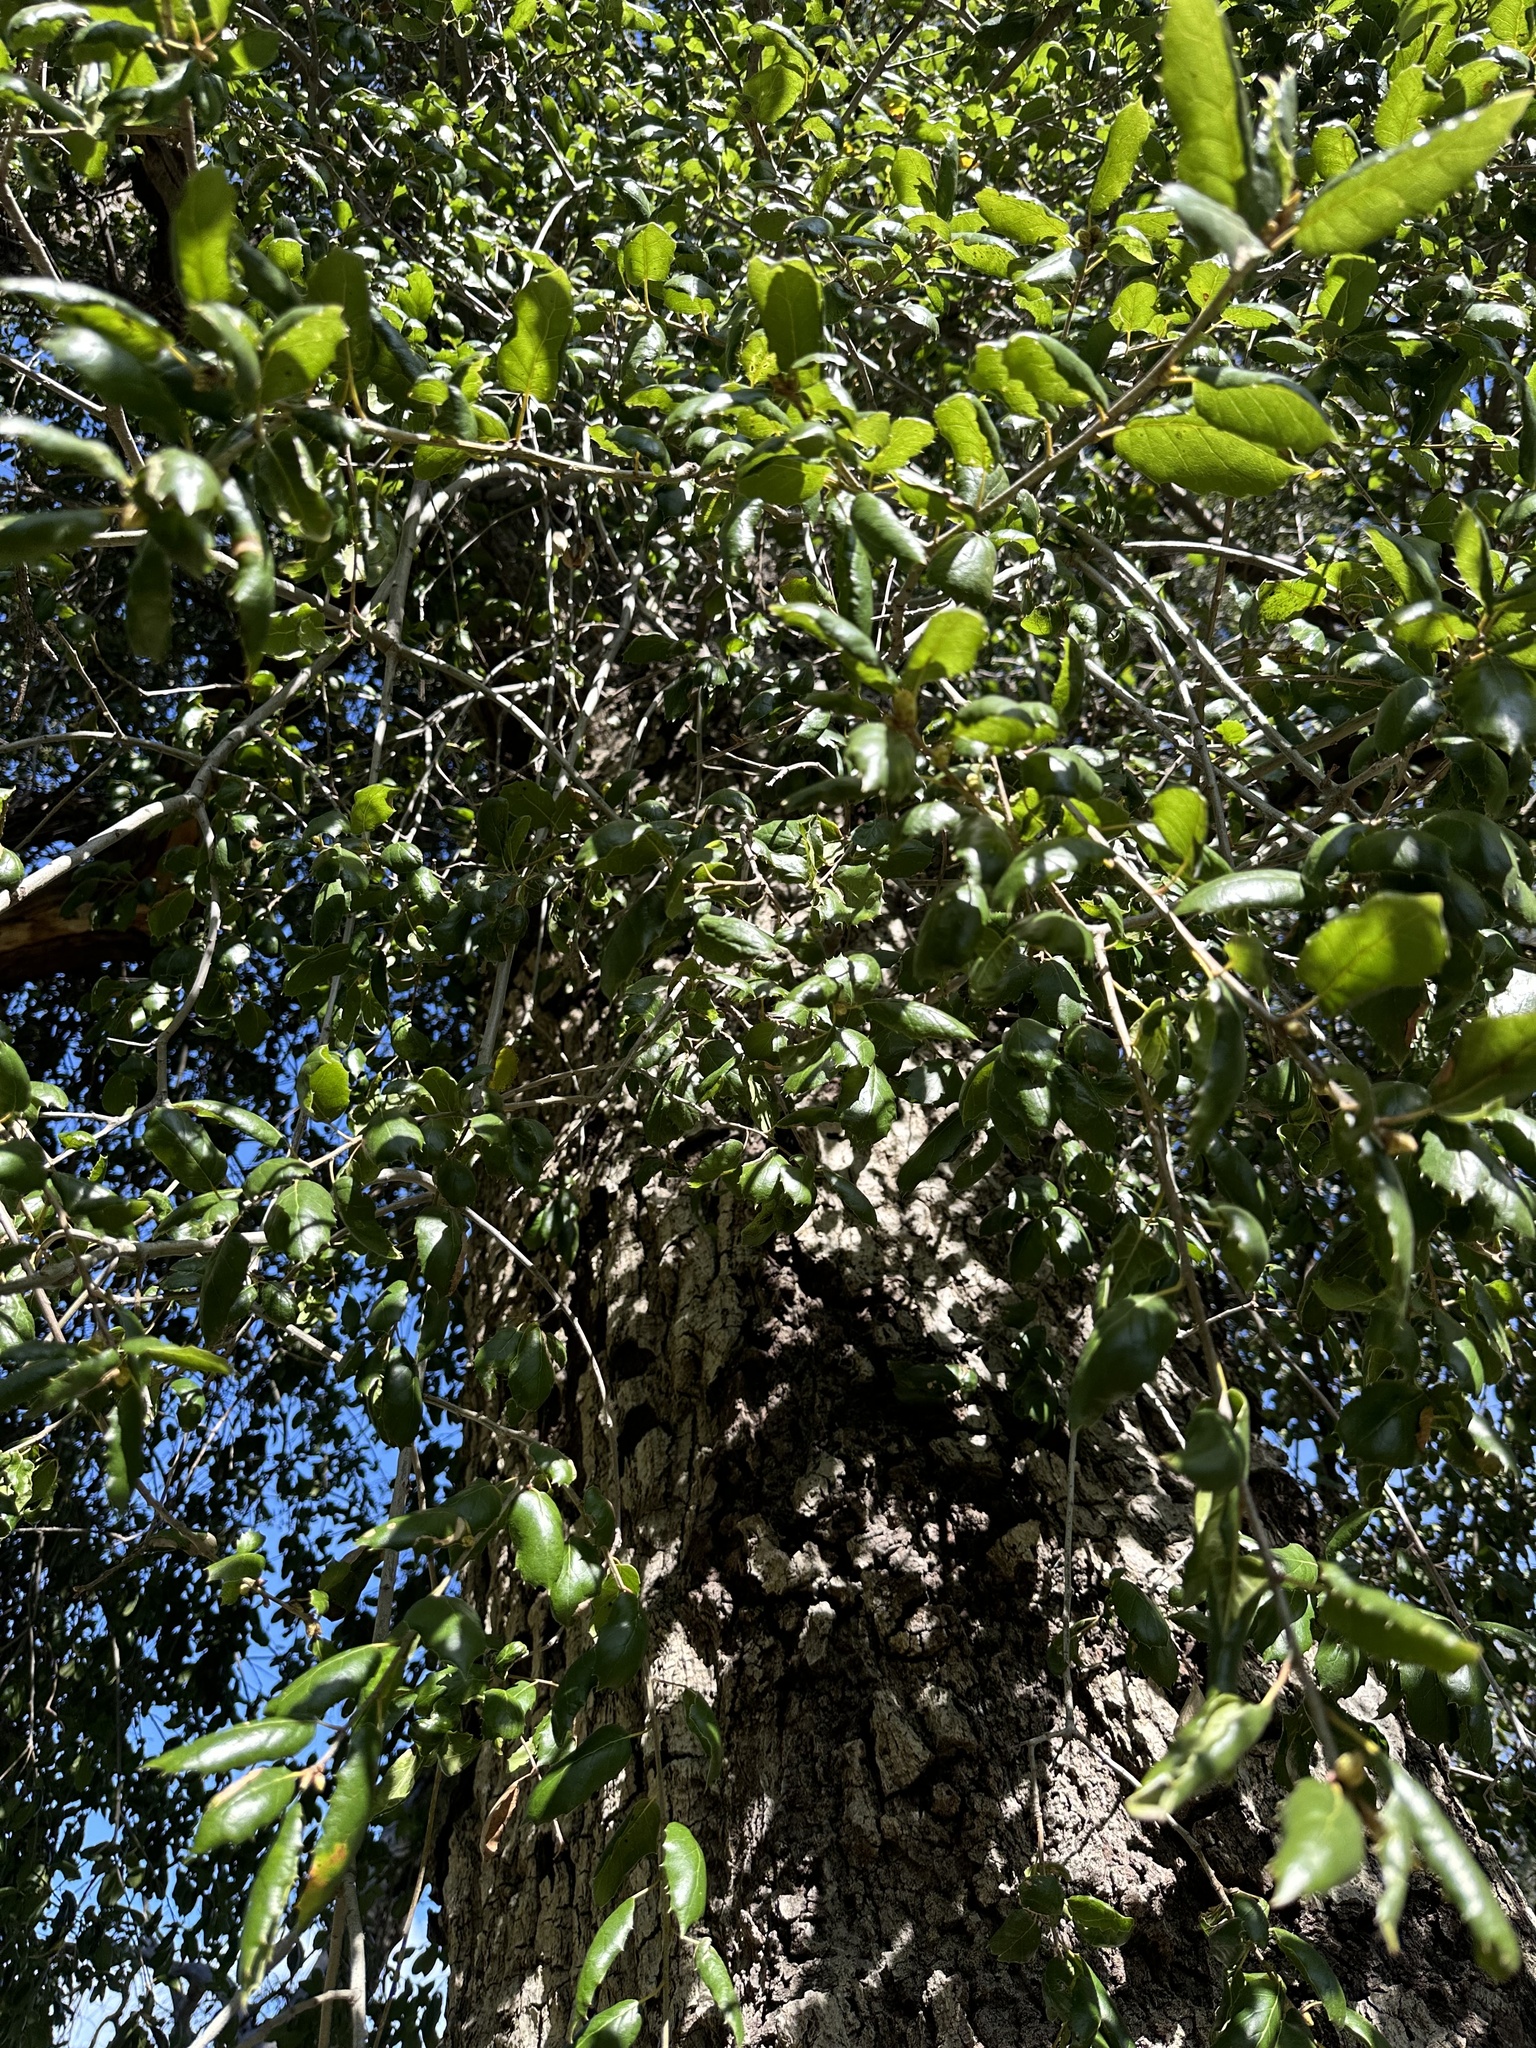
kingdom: Plantae
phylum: Tracheophyta
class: Magnoliopsida
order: Fagales
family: Fagaceae
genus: Quercus
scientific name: Quercus agrifolia
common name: California live oak
